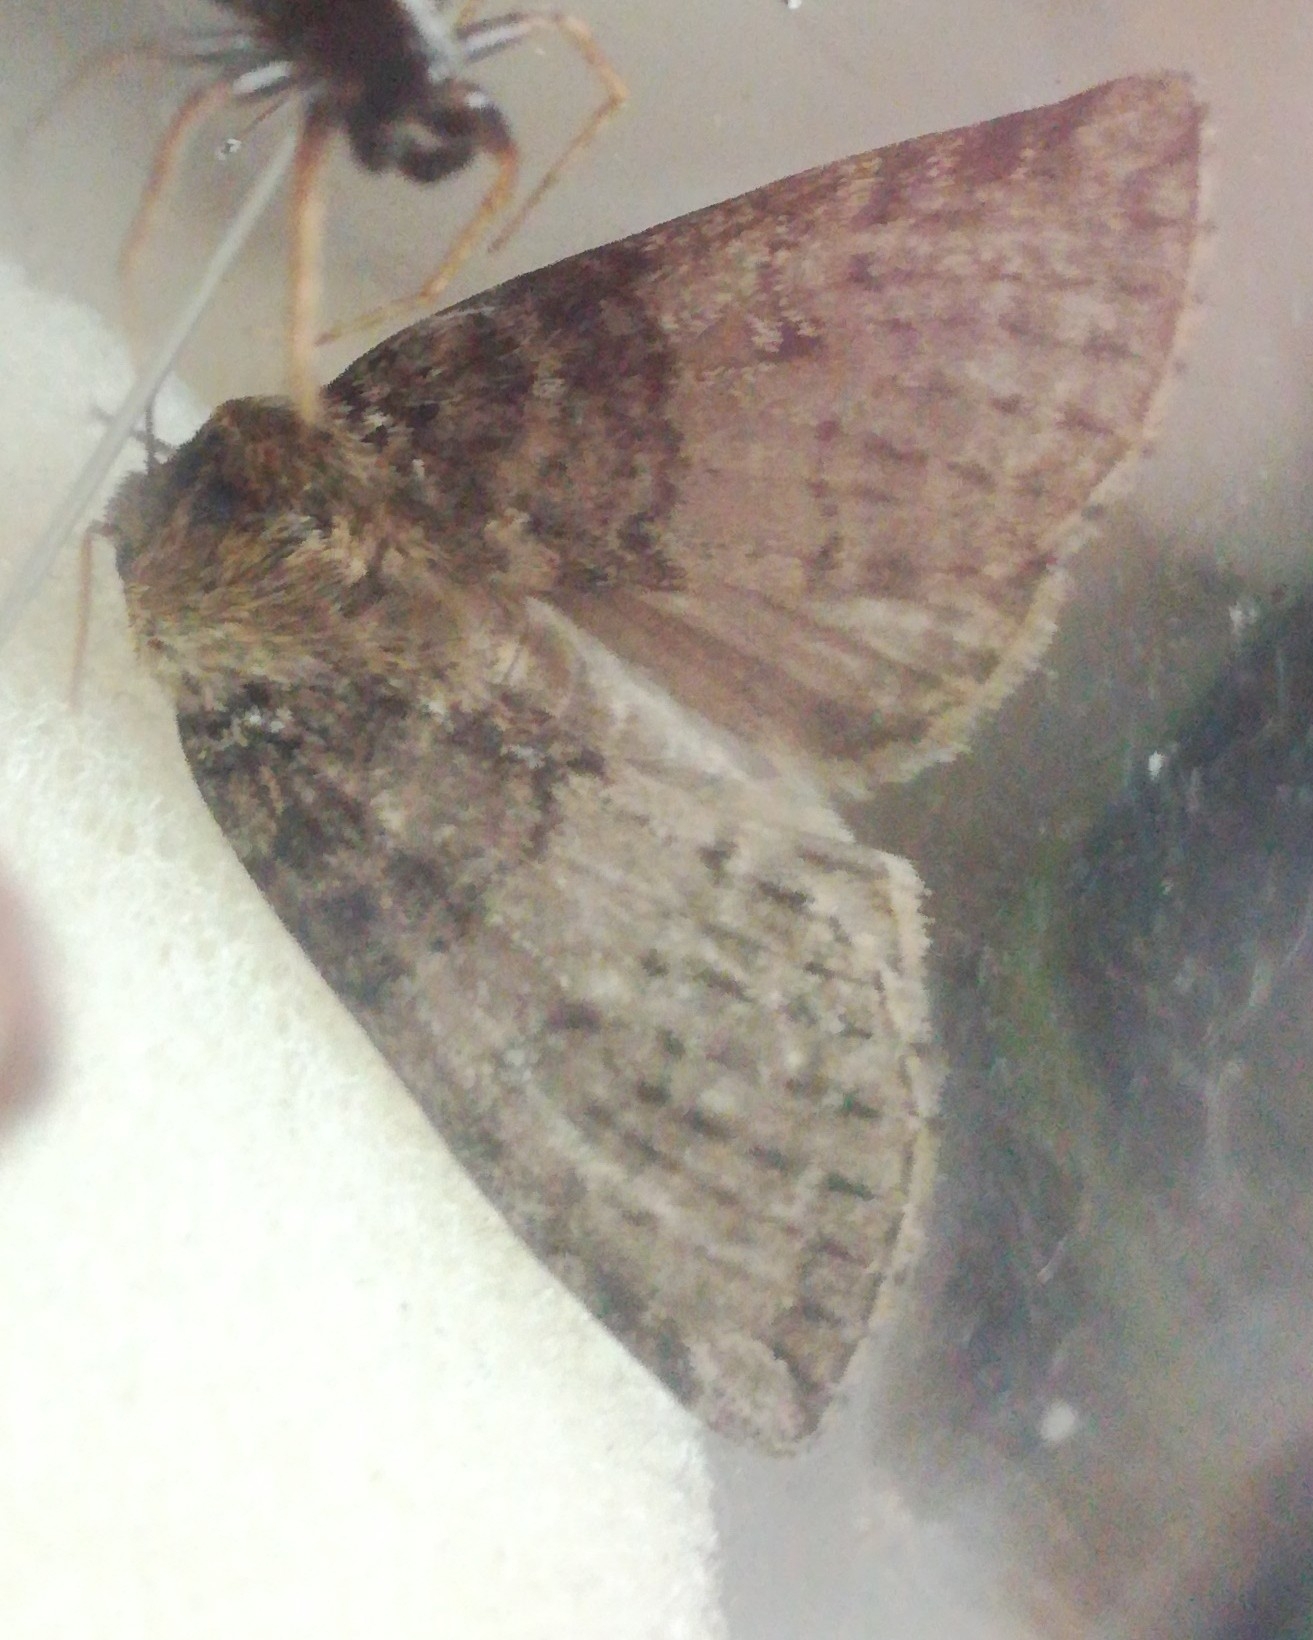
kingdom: Animalia
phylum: Arthropoda
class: Insecta
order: Lepidoptera
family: Drepanidae
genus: Tethea
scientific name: Tethea or
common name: Poplar lutestring
